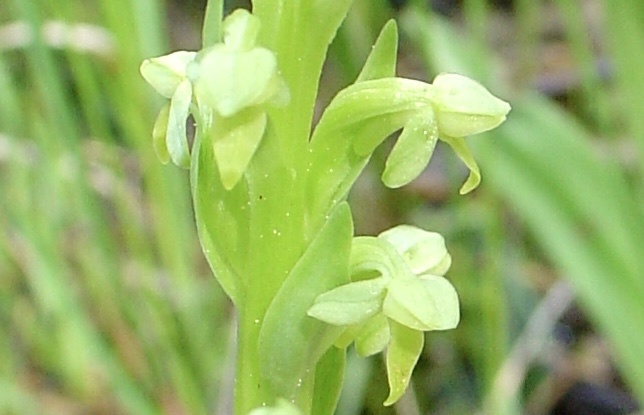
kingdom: Plantae
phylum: Tracheophyta
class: Liliopsida
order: Asparagales
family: Orchidaceae
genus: Platanthera
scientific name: Platanthera aquilonis
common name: Northern green orchid
